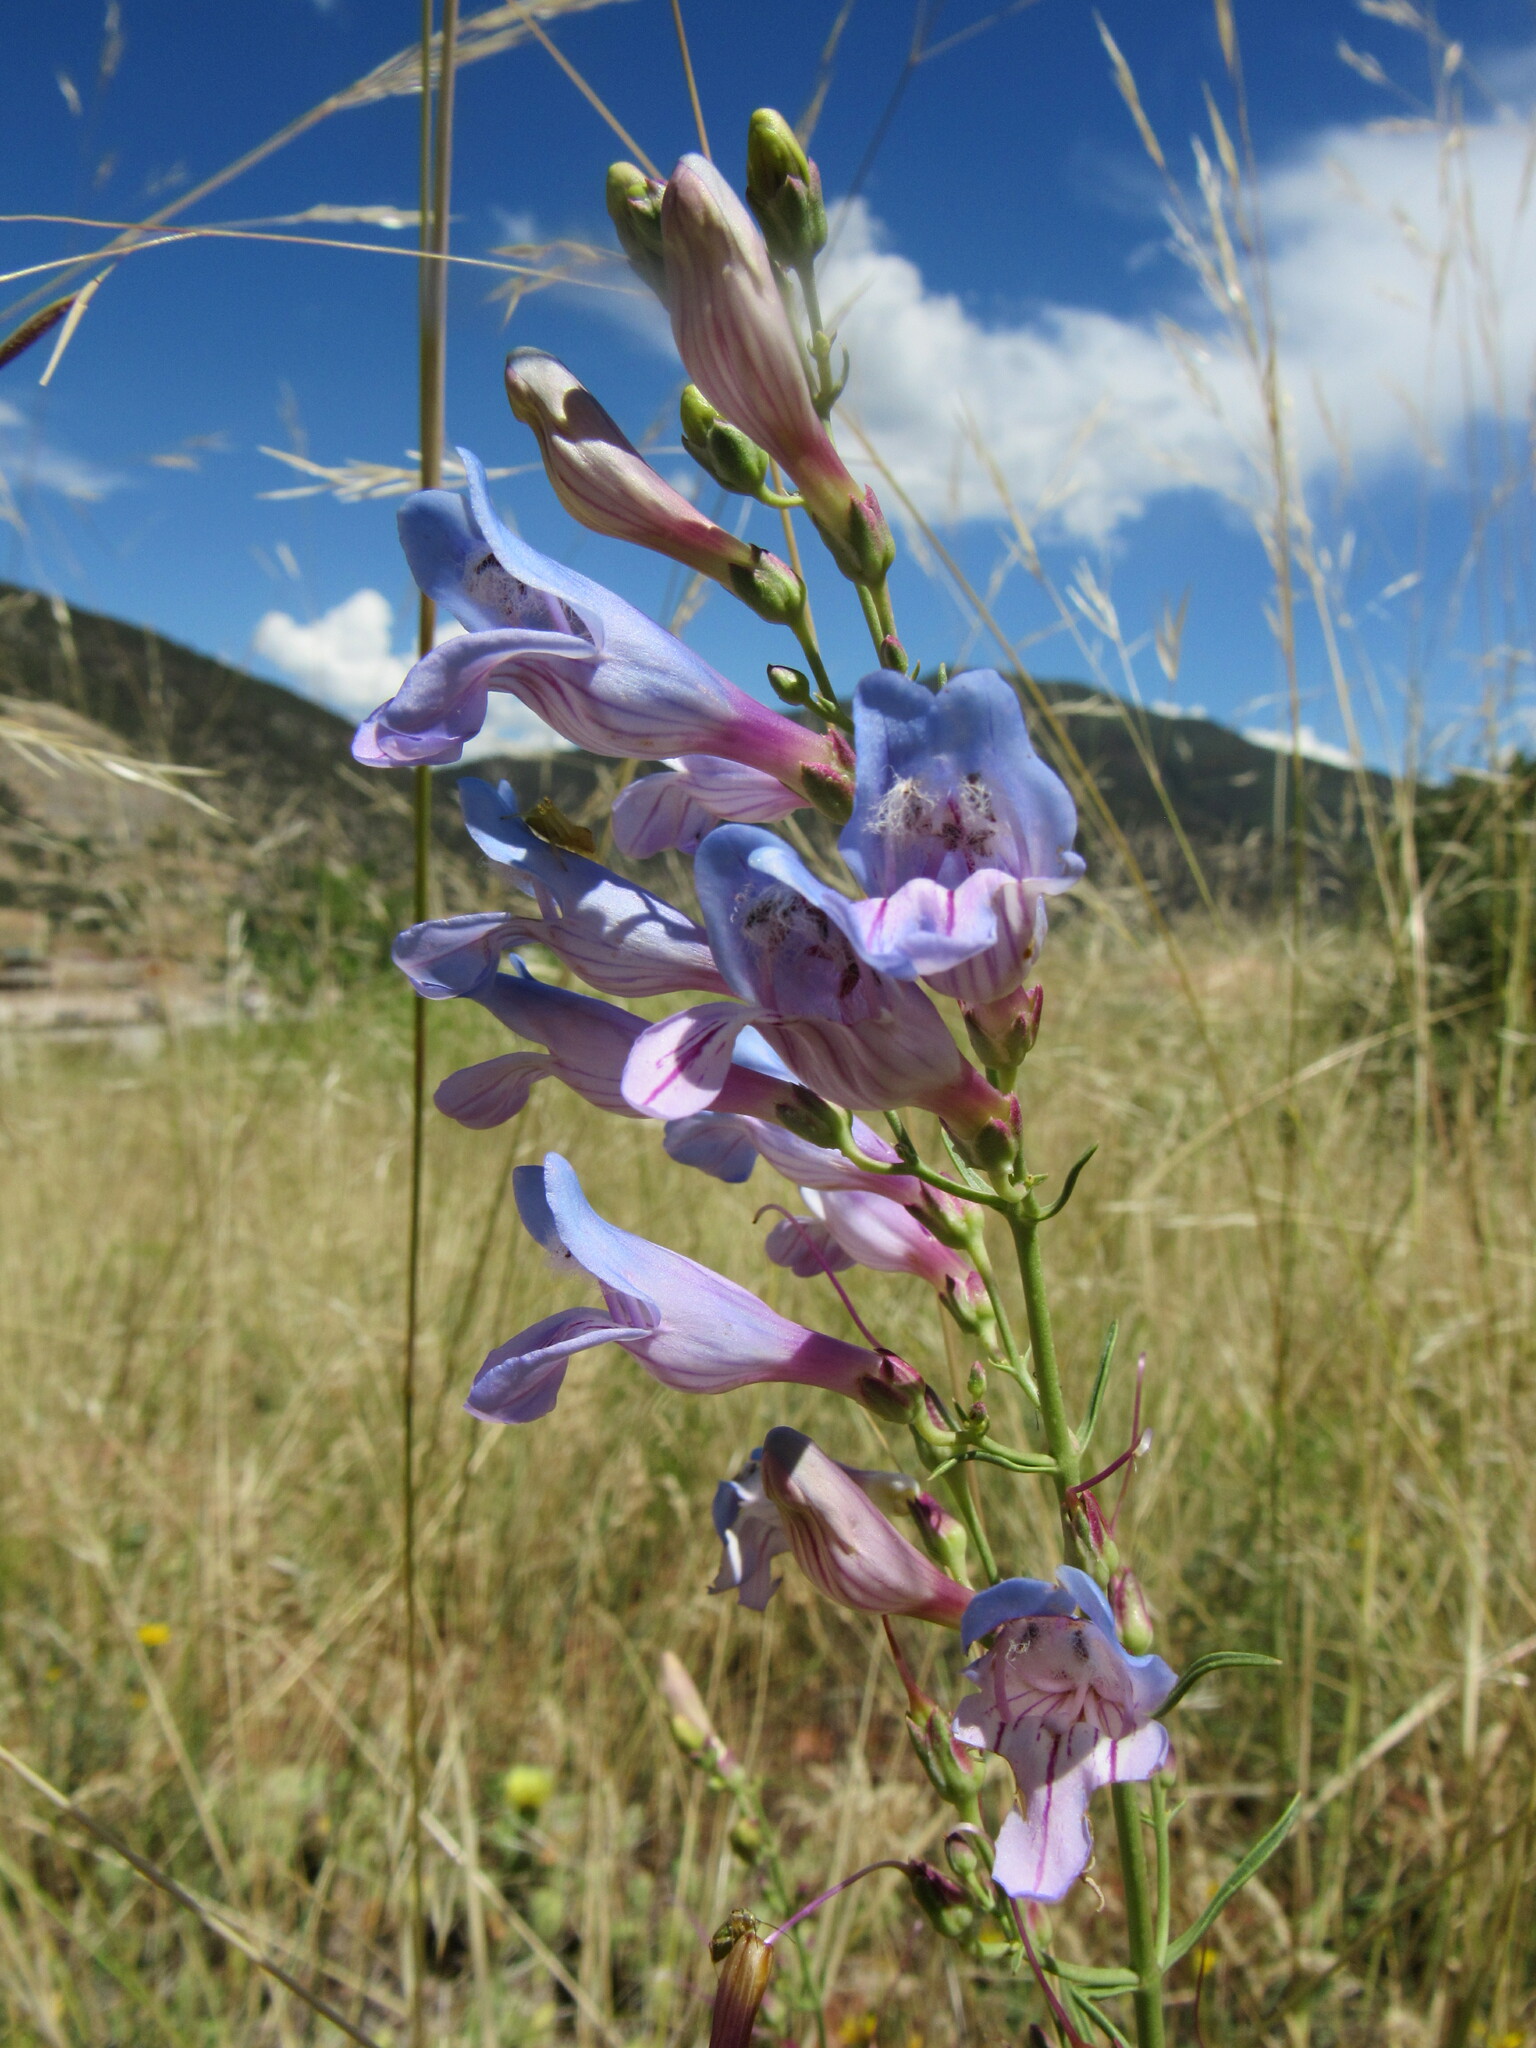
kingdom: Plantae
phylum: Tracheophyta
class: Magnoliopsida
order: Lamiales
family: Plantaginaceae
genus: Penstemon
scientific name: Penstemon comarrhenus
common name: Dusty penstemon
